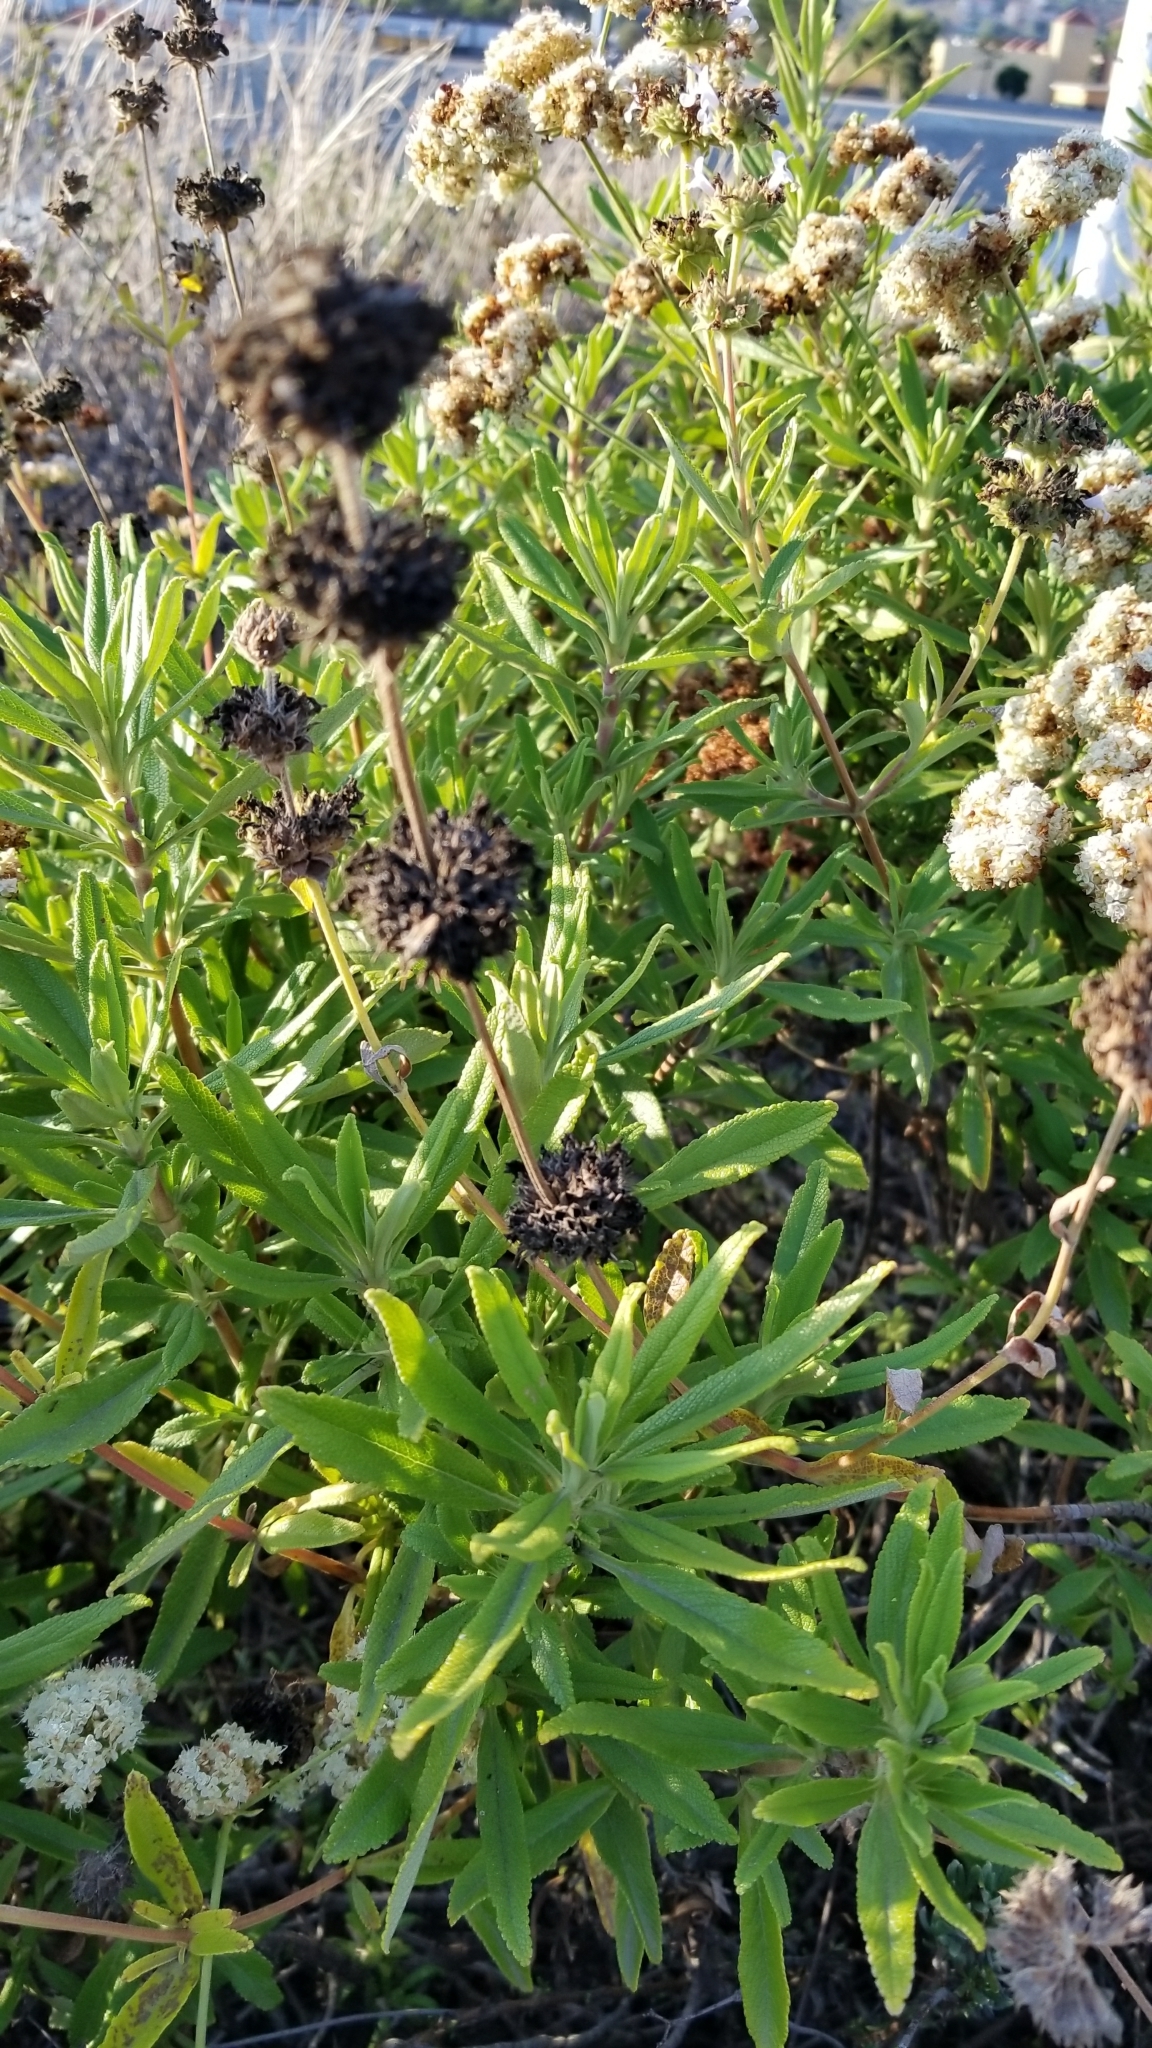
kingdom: Plantae
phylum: Tracheophyta
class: Magnoliopsida
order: Lamiales
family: Lamiaceae
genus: Salvia
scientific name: Salvia mellifera
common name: Black sage
